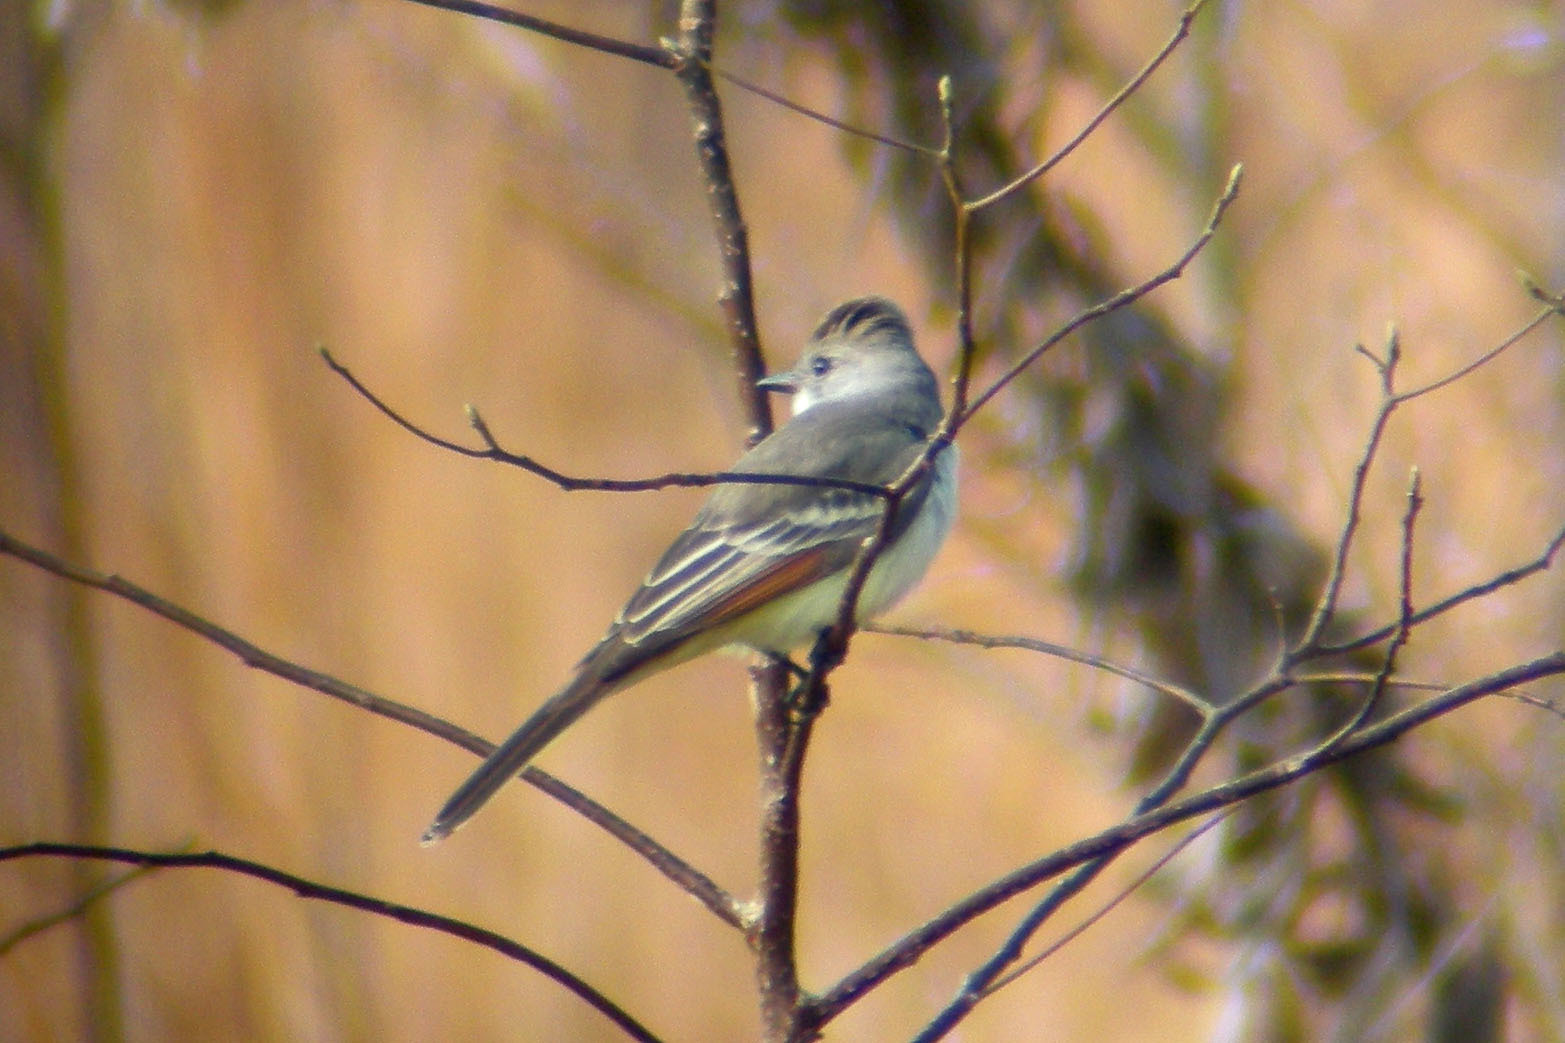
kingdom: Animalia
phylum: Chordata
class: Aves
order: Passeriformes
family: Tyrannidae
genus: Myiarchus
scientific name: Myiarchus cinerascens
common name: Ash-throated flycatcher
